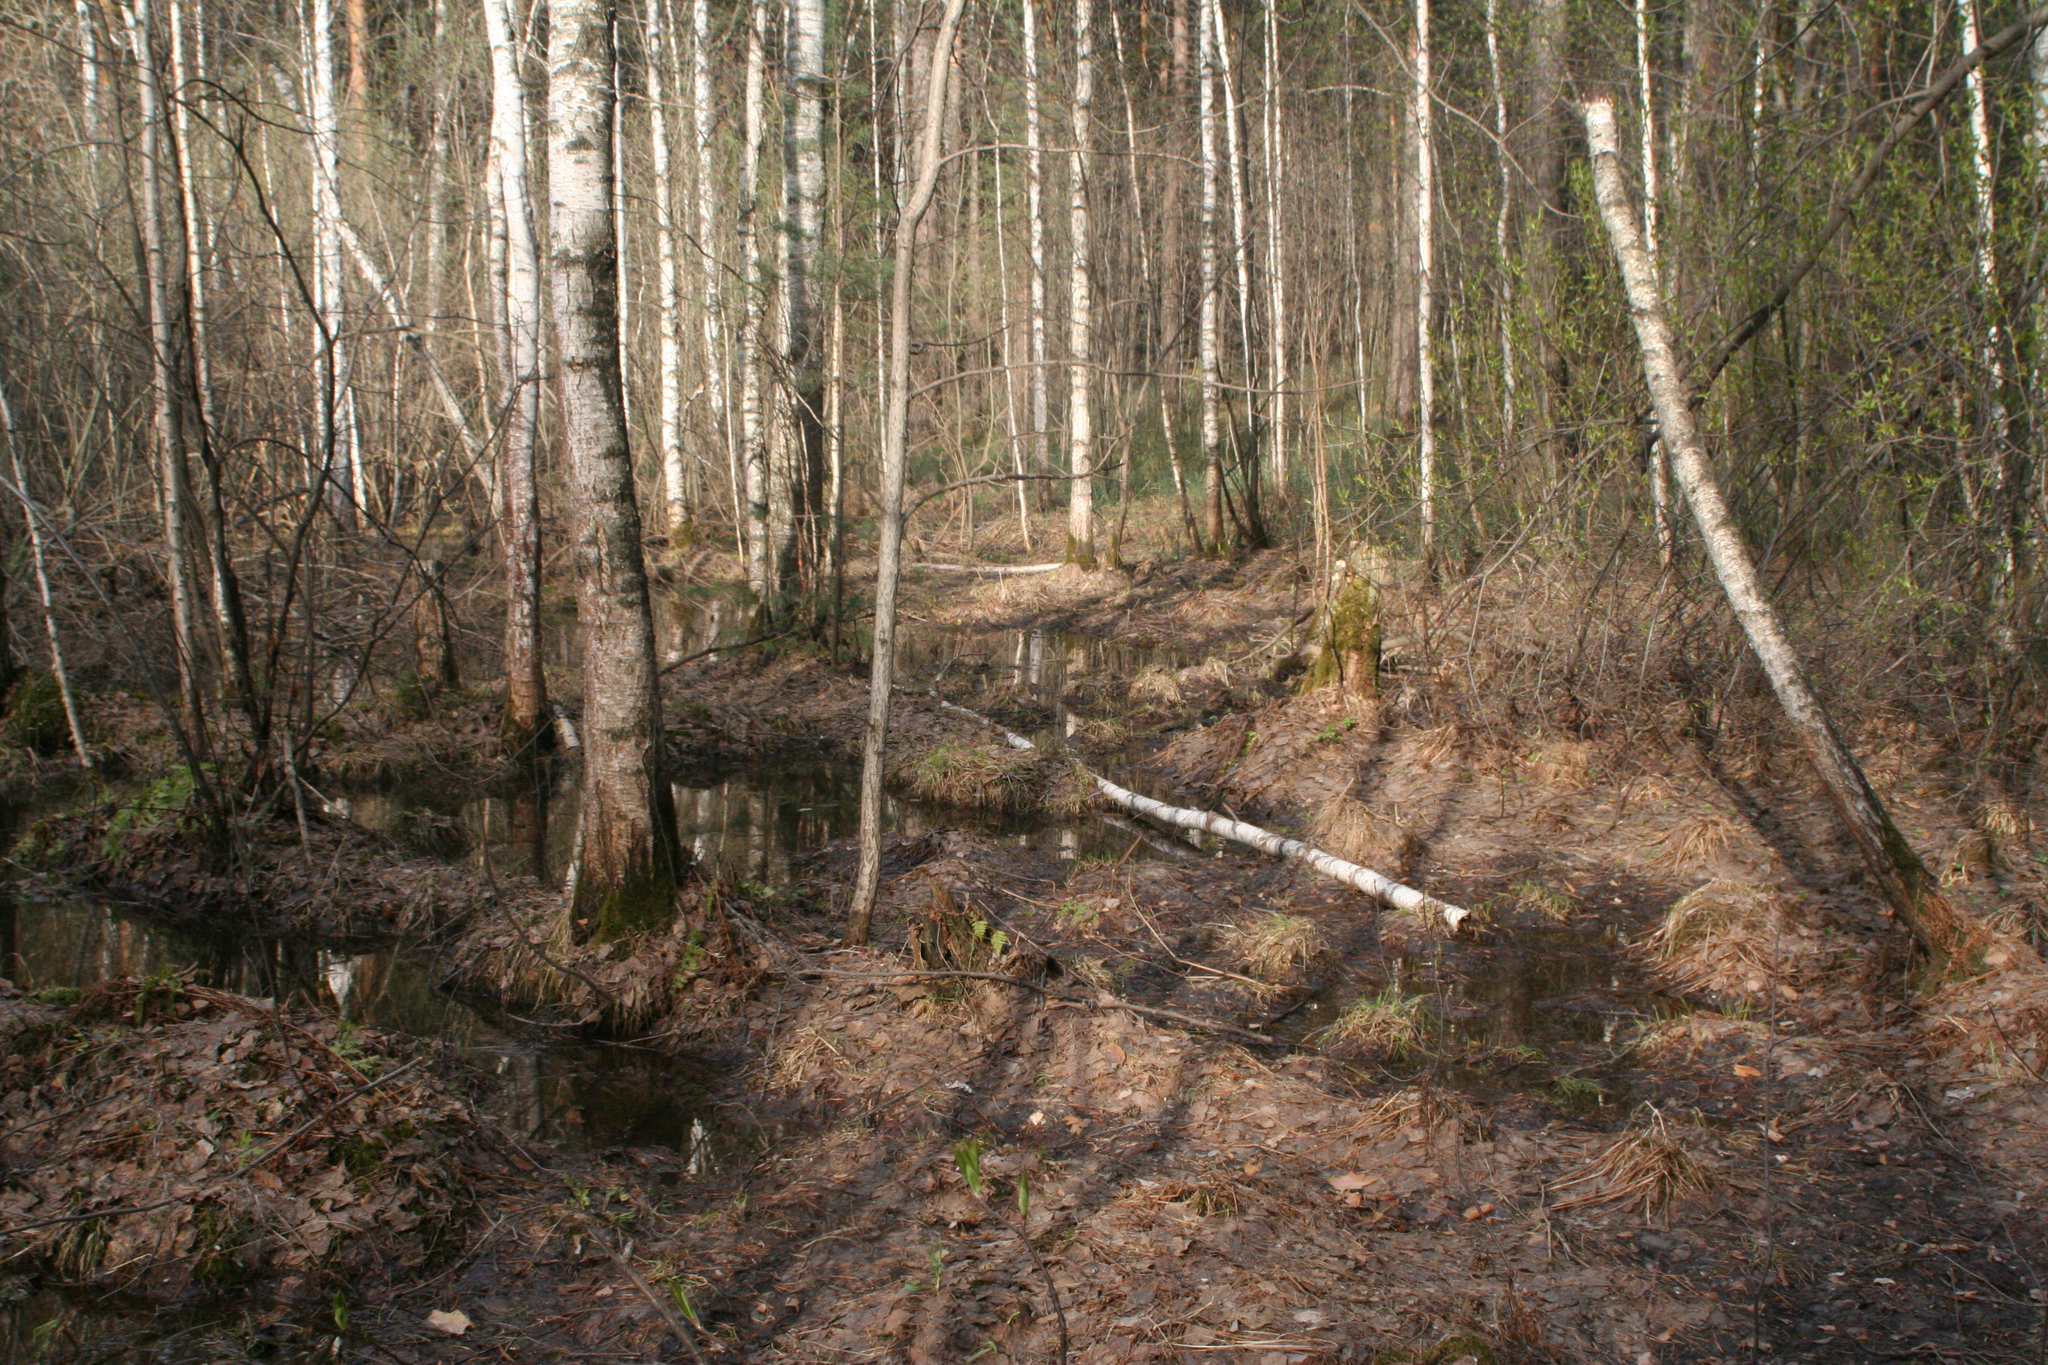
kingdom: Plantae
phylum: Tracheophyta
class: Magnoliopsida
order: Fagales
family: Betulaceae
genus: Betula
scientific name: Betula pubescens
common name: Downy birch
